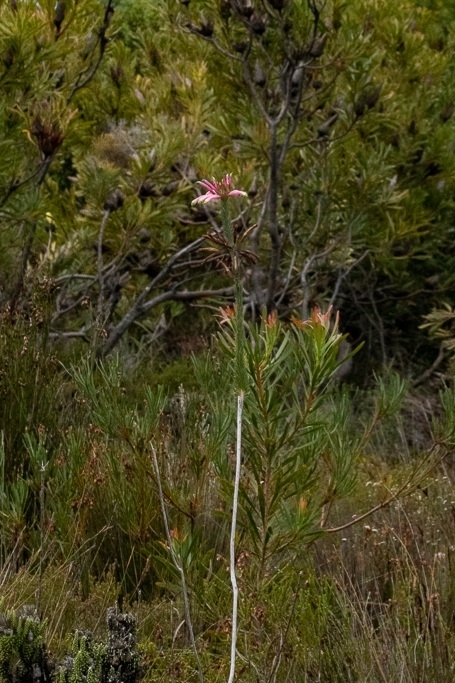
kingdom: Plantae
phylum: Tracheophyta
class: Magnoliopsida
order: Ericales
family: Ericaceae
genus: Erica
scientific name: Erica fascicularis
